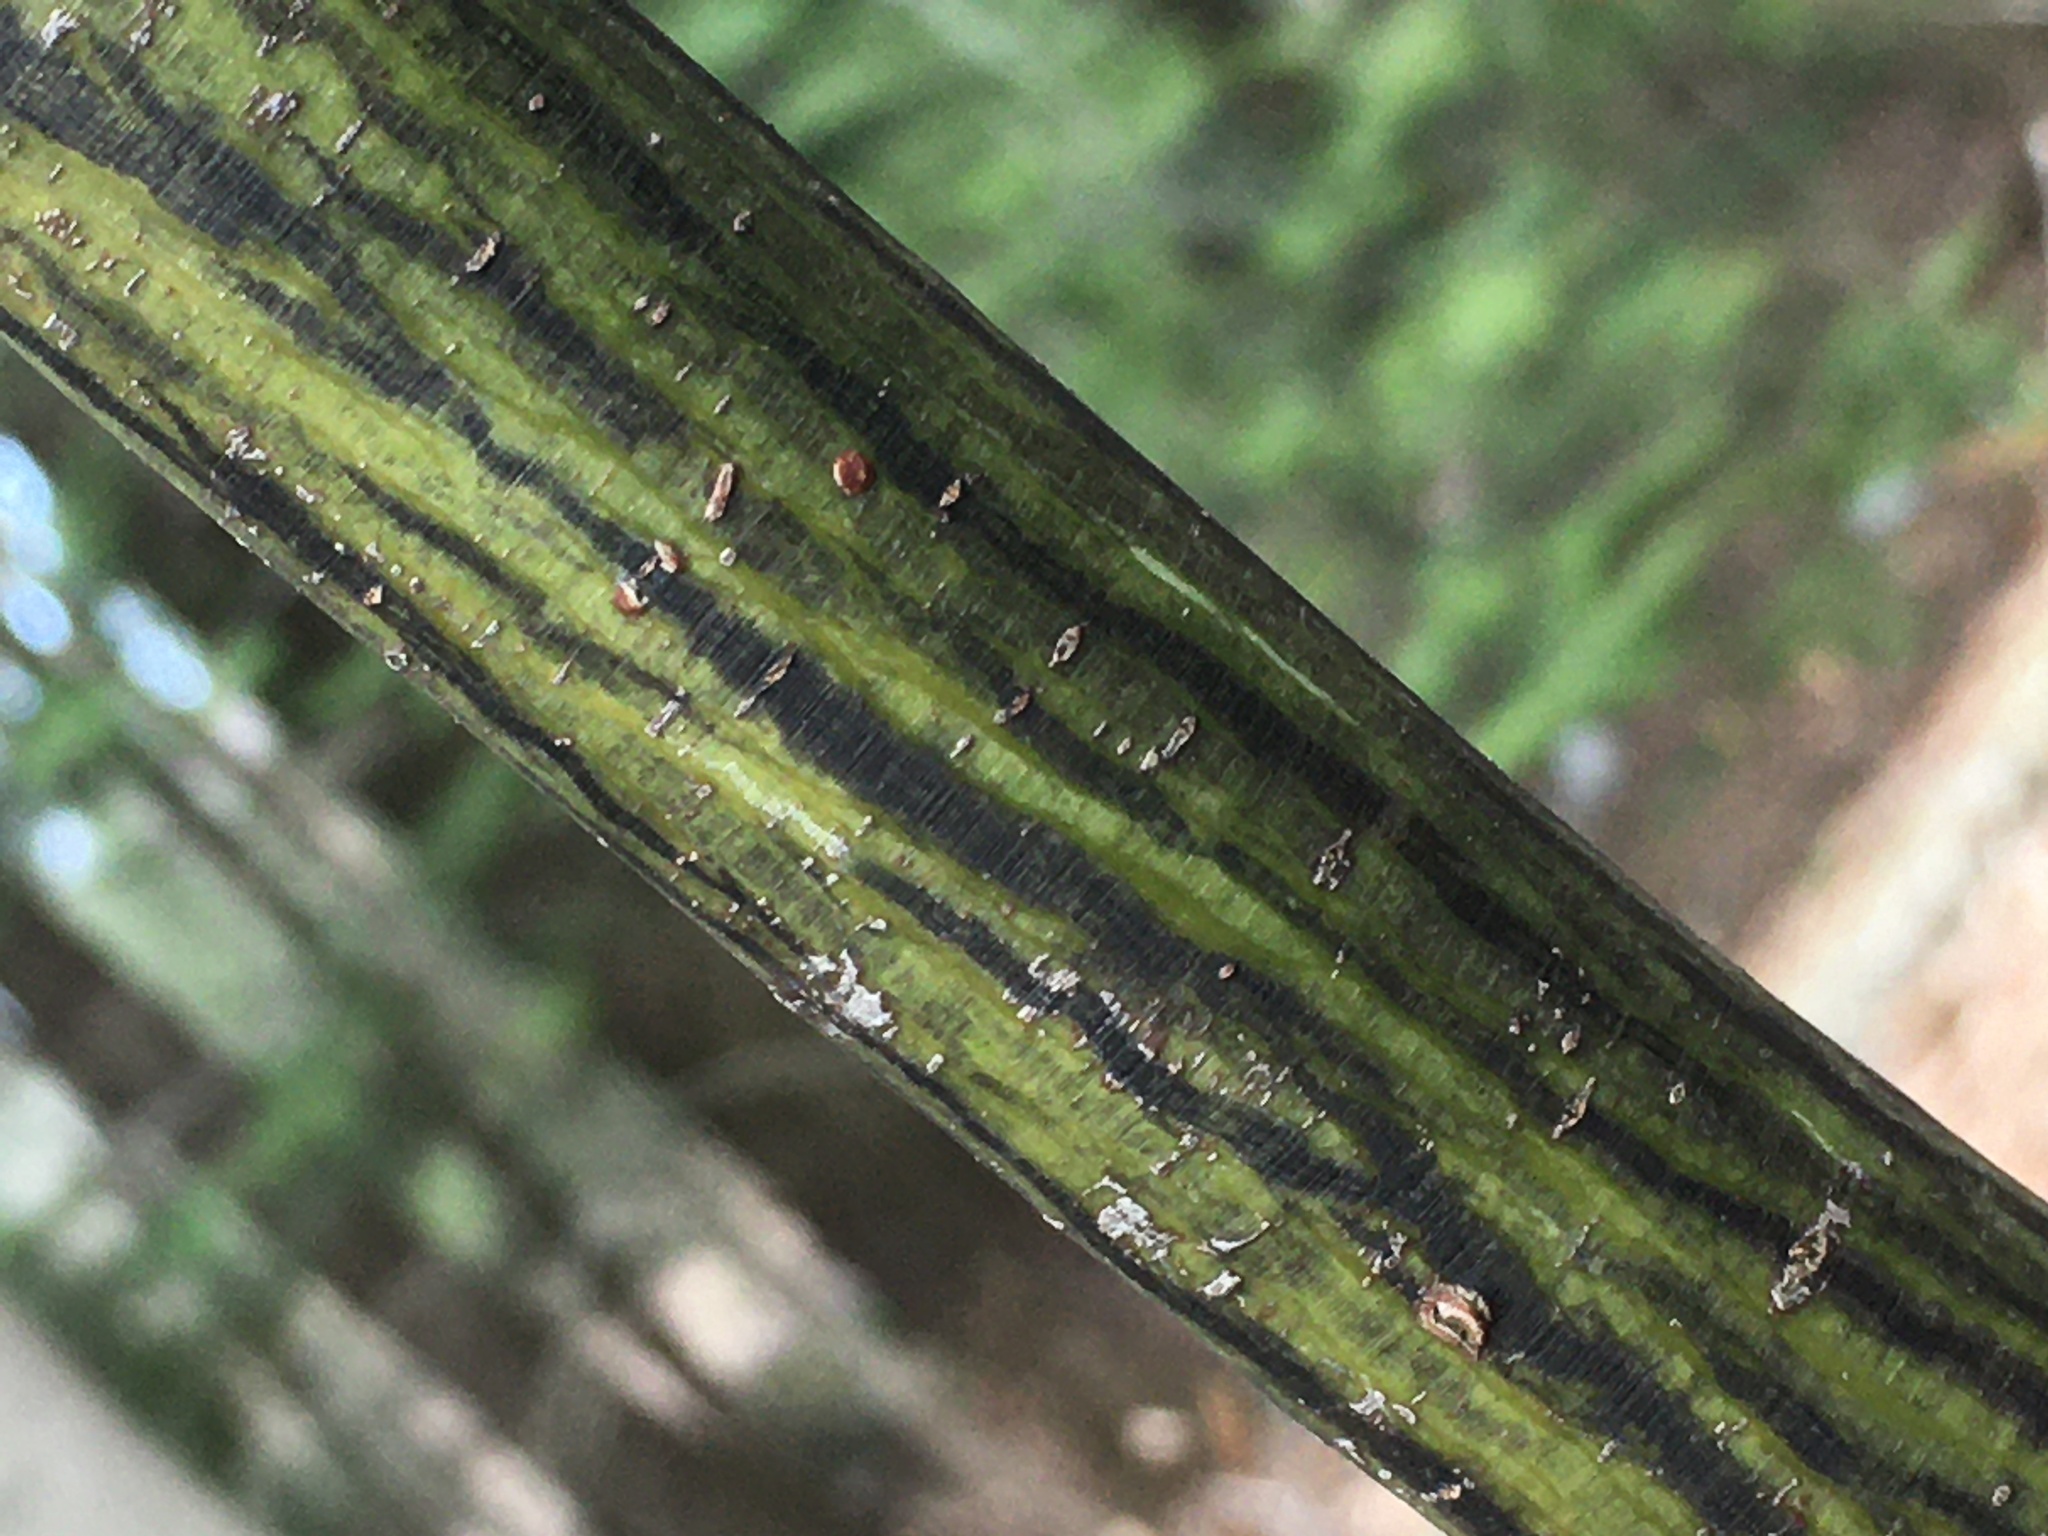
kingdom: Plantae
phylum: Tracheophyta
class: Magnoliopsida
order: Sapindales
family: Sapindaceae
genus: Acer
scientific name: Acer pensylvanicum
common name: Moosewood
